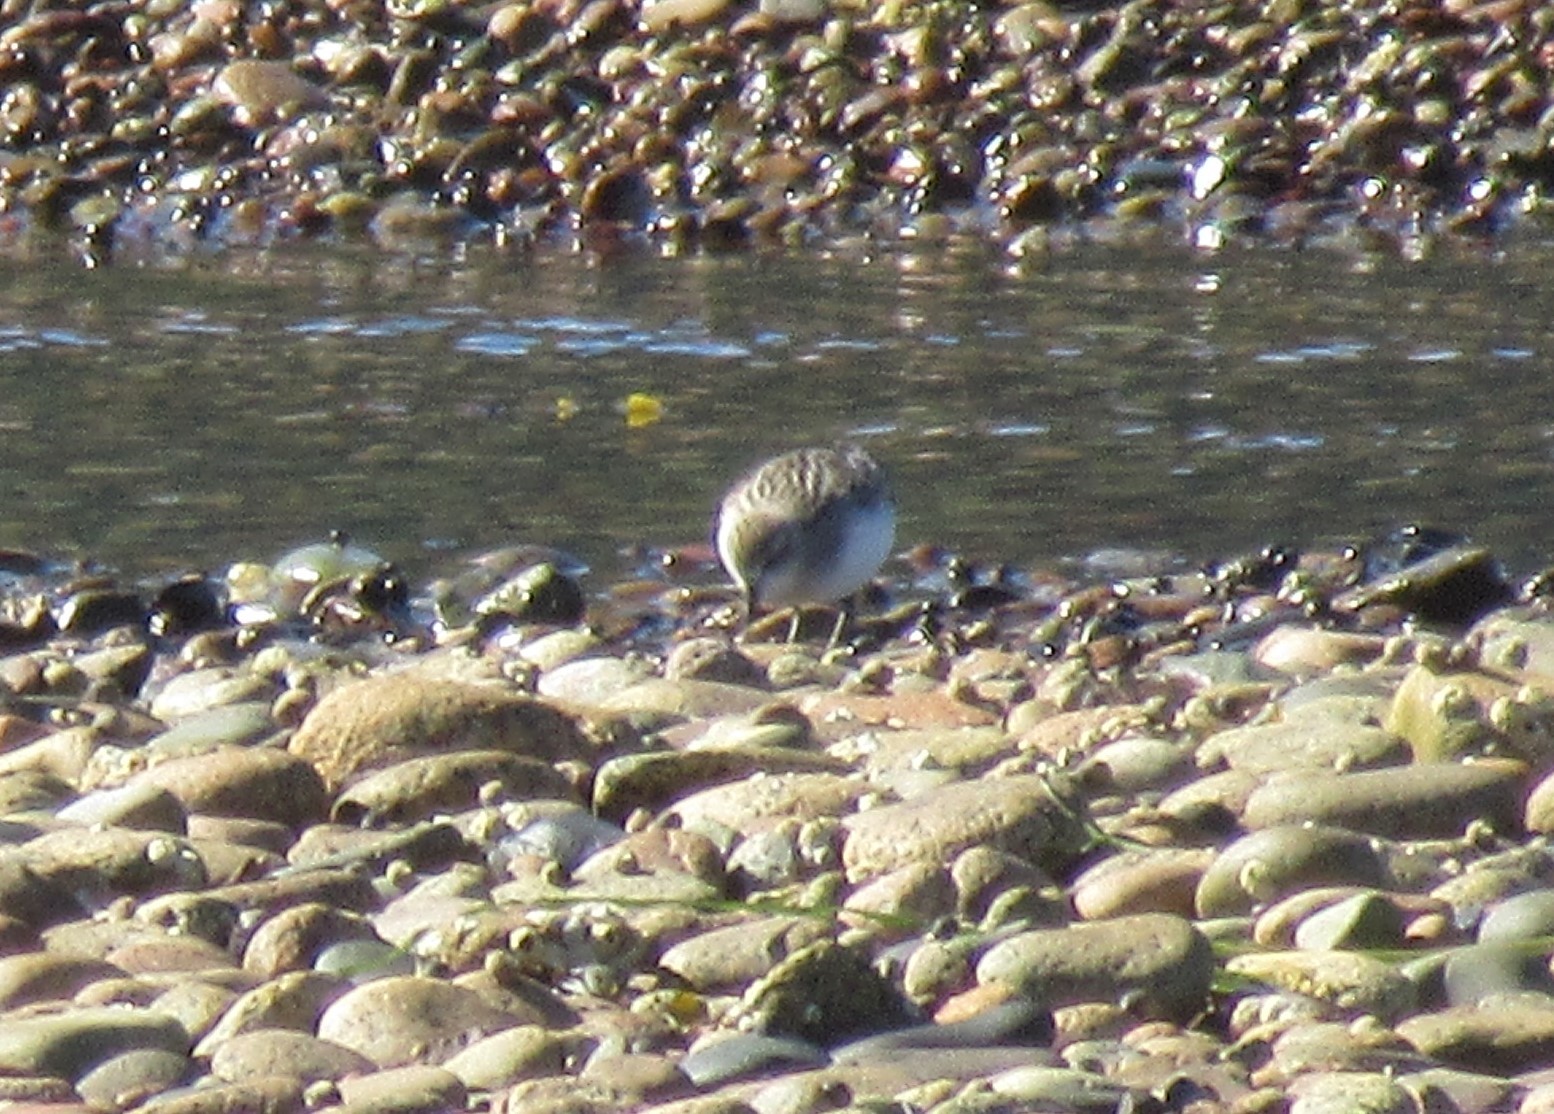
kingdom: Animalia
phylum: Chordata
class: Aves
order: Charadriiformes
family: Scolopacidae
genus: Calidris
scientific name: Calidris pusilla
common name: Semipalmated sandpiper
